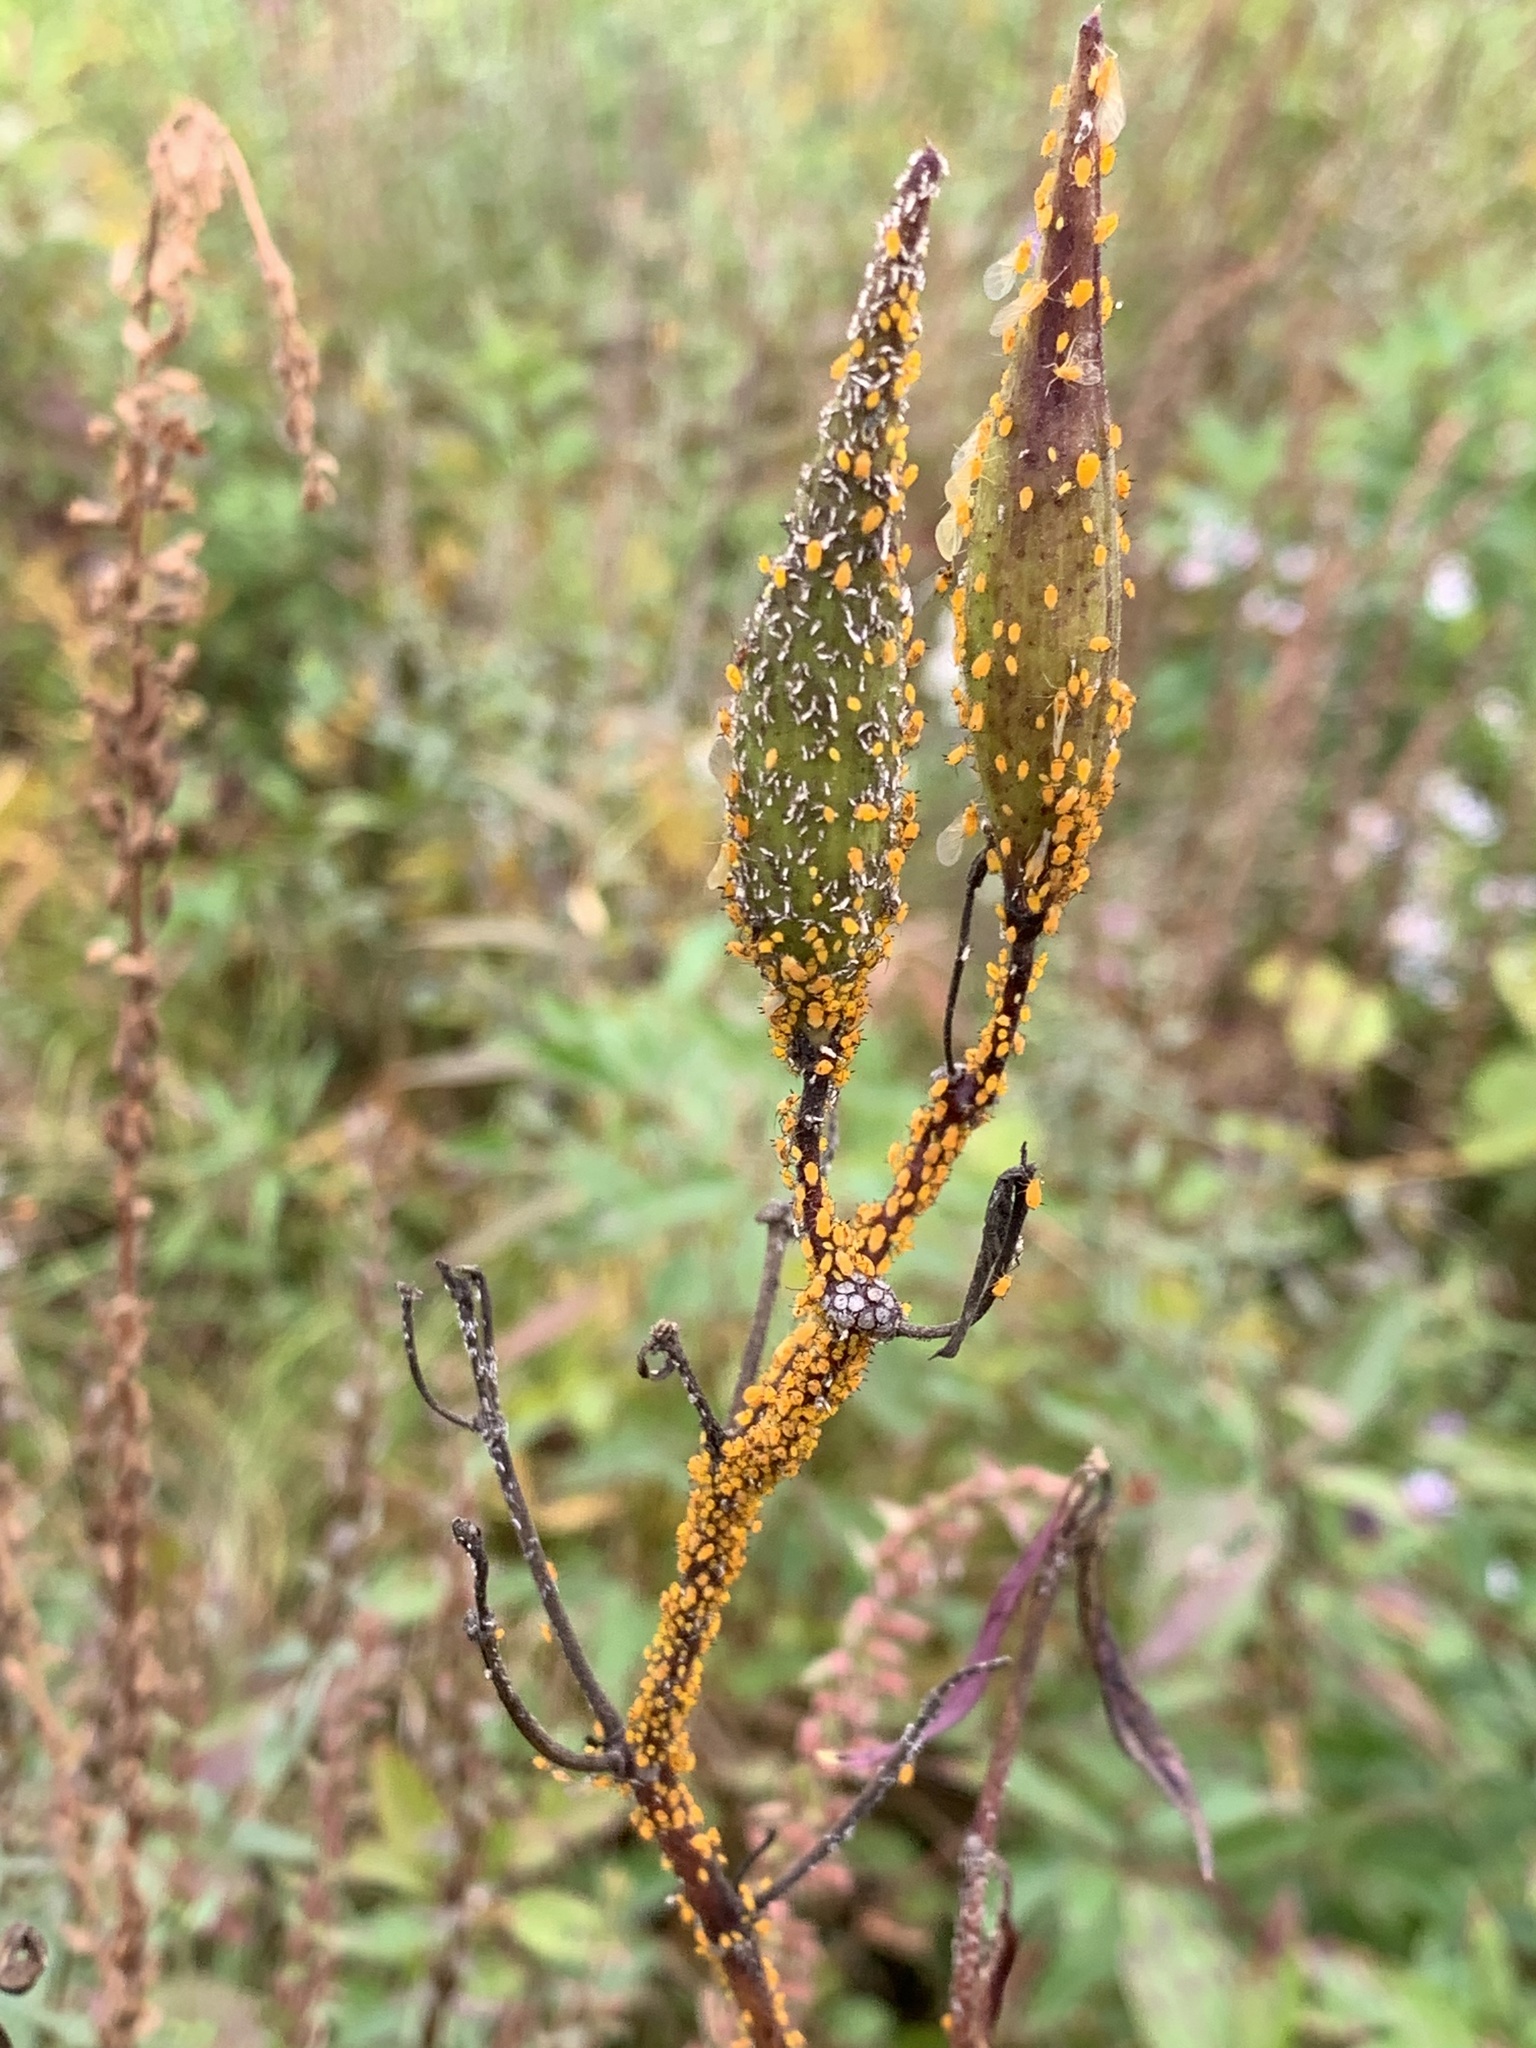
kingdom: Animalia
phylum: Arthropoda
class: Insecta
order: Hemiptera
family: Aphididae
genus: Aphis
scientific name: Aphis nerii
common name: Oleander aphid
